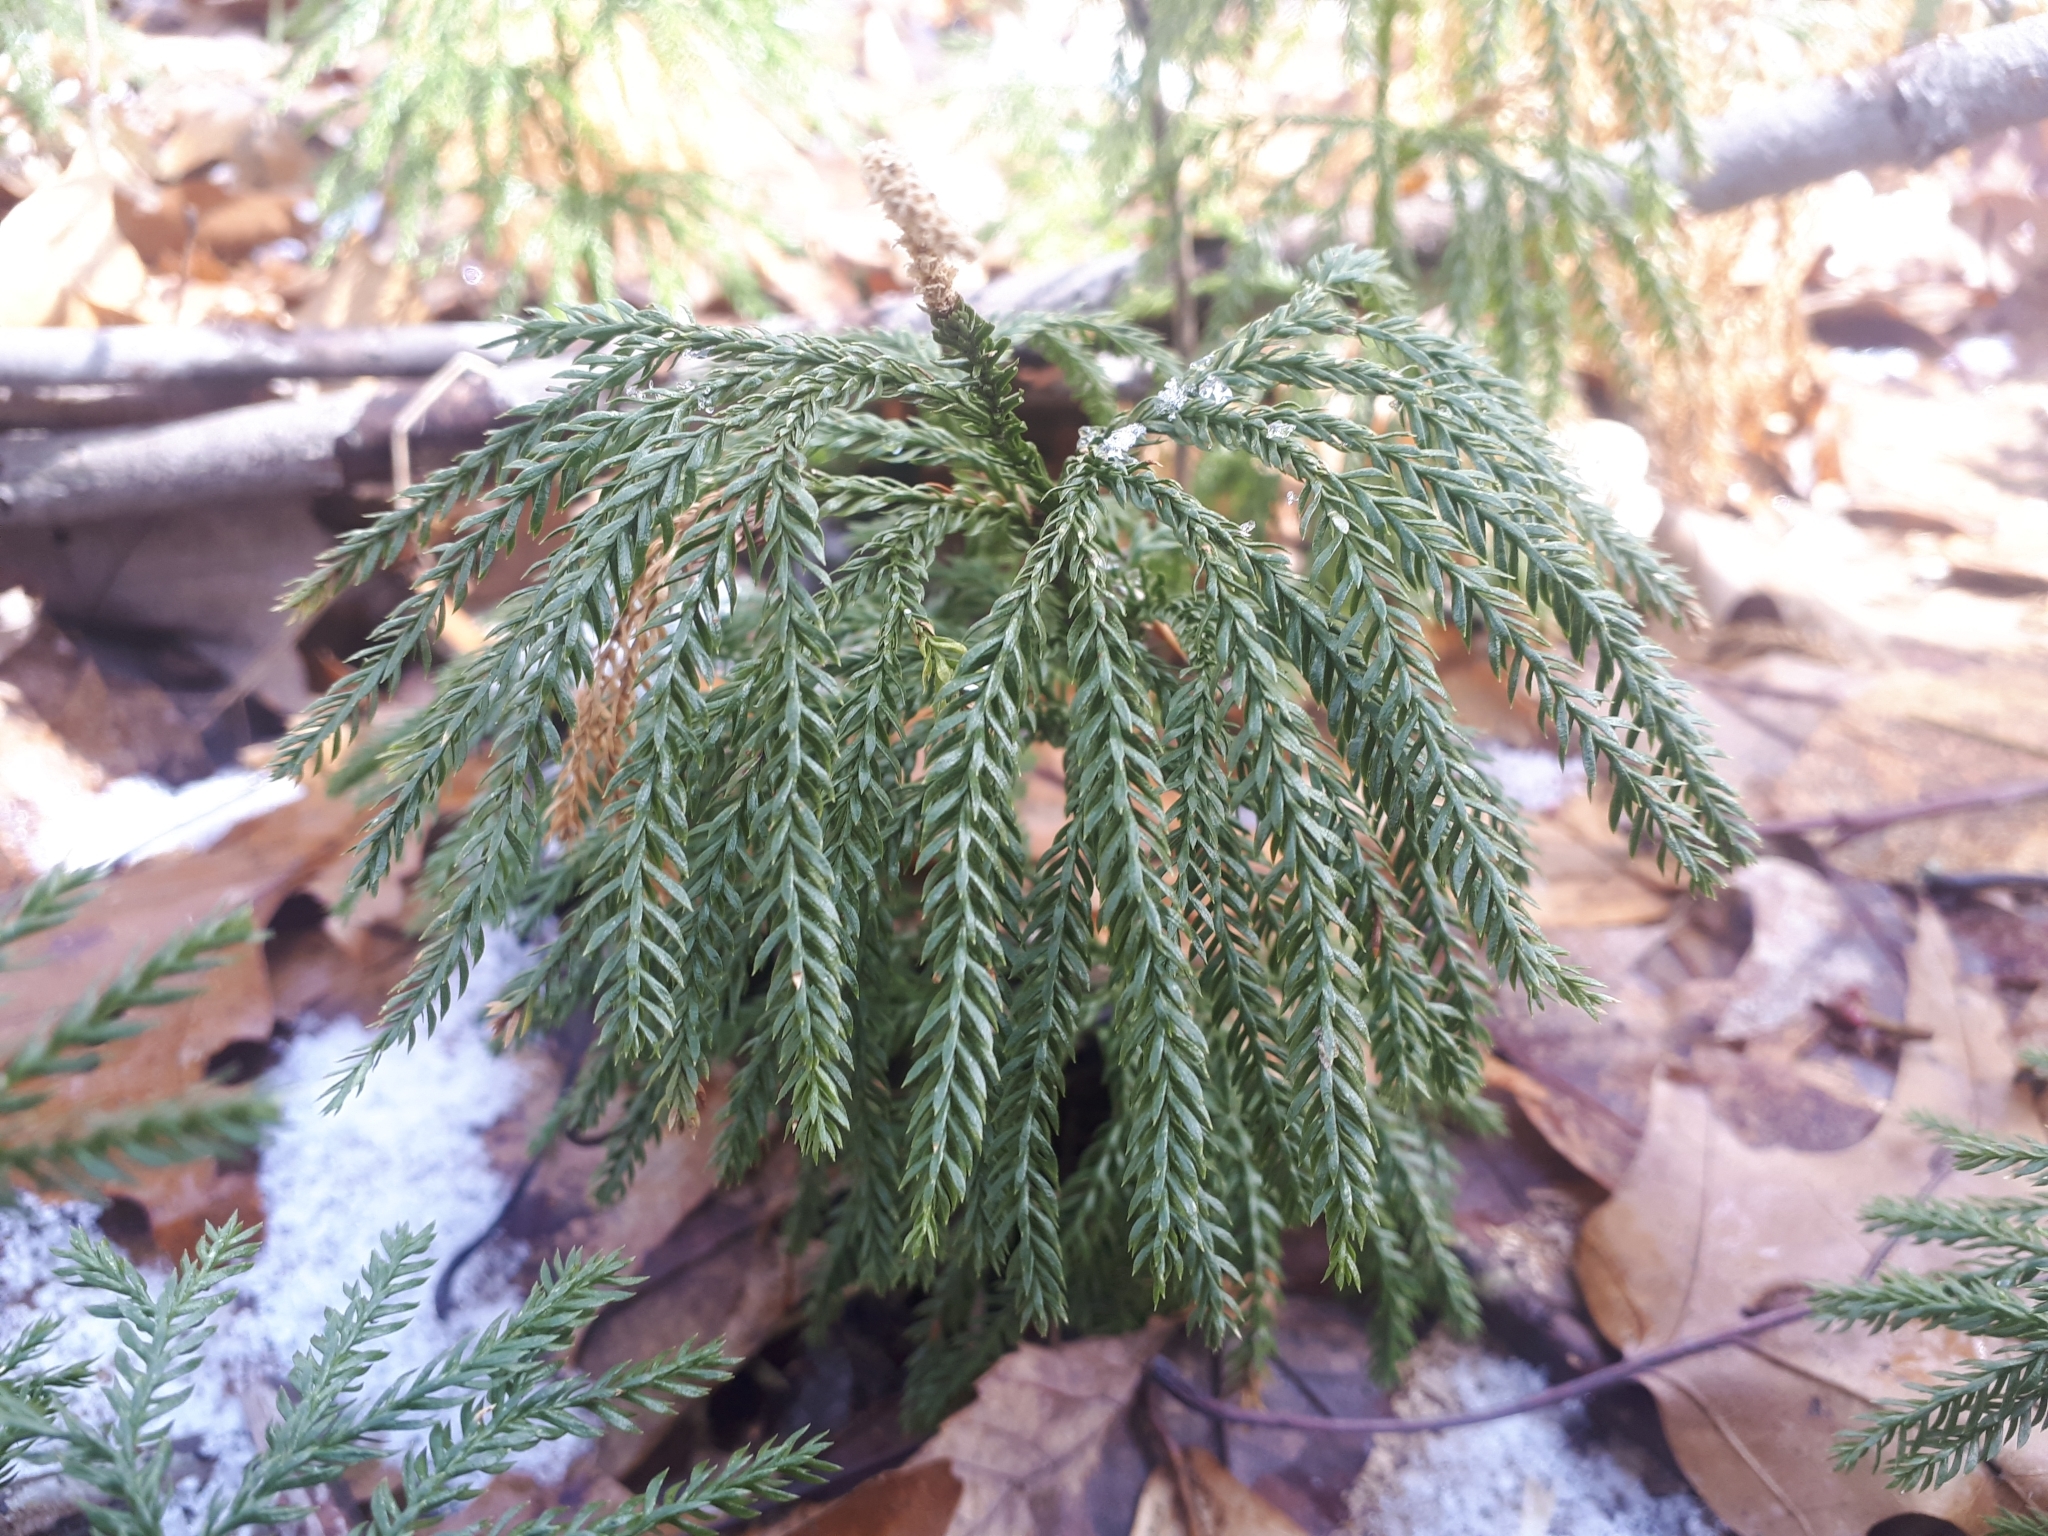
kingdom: Plantae
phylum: Tracheophyta
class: Lycopodiopsida
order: Lycopodiales
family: Lycopodiaceae
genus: Dendrolycopodium
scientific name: Dendrolycopodium obscurum
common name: Common ground-pine
